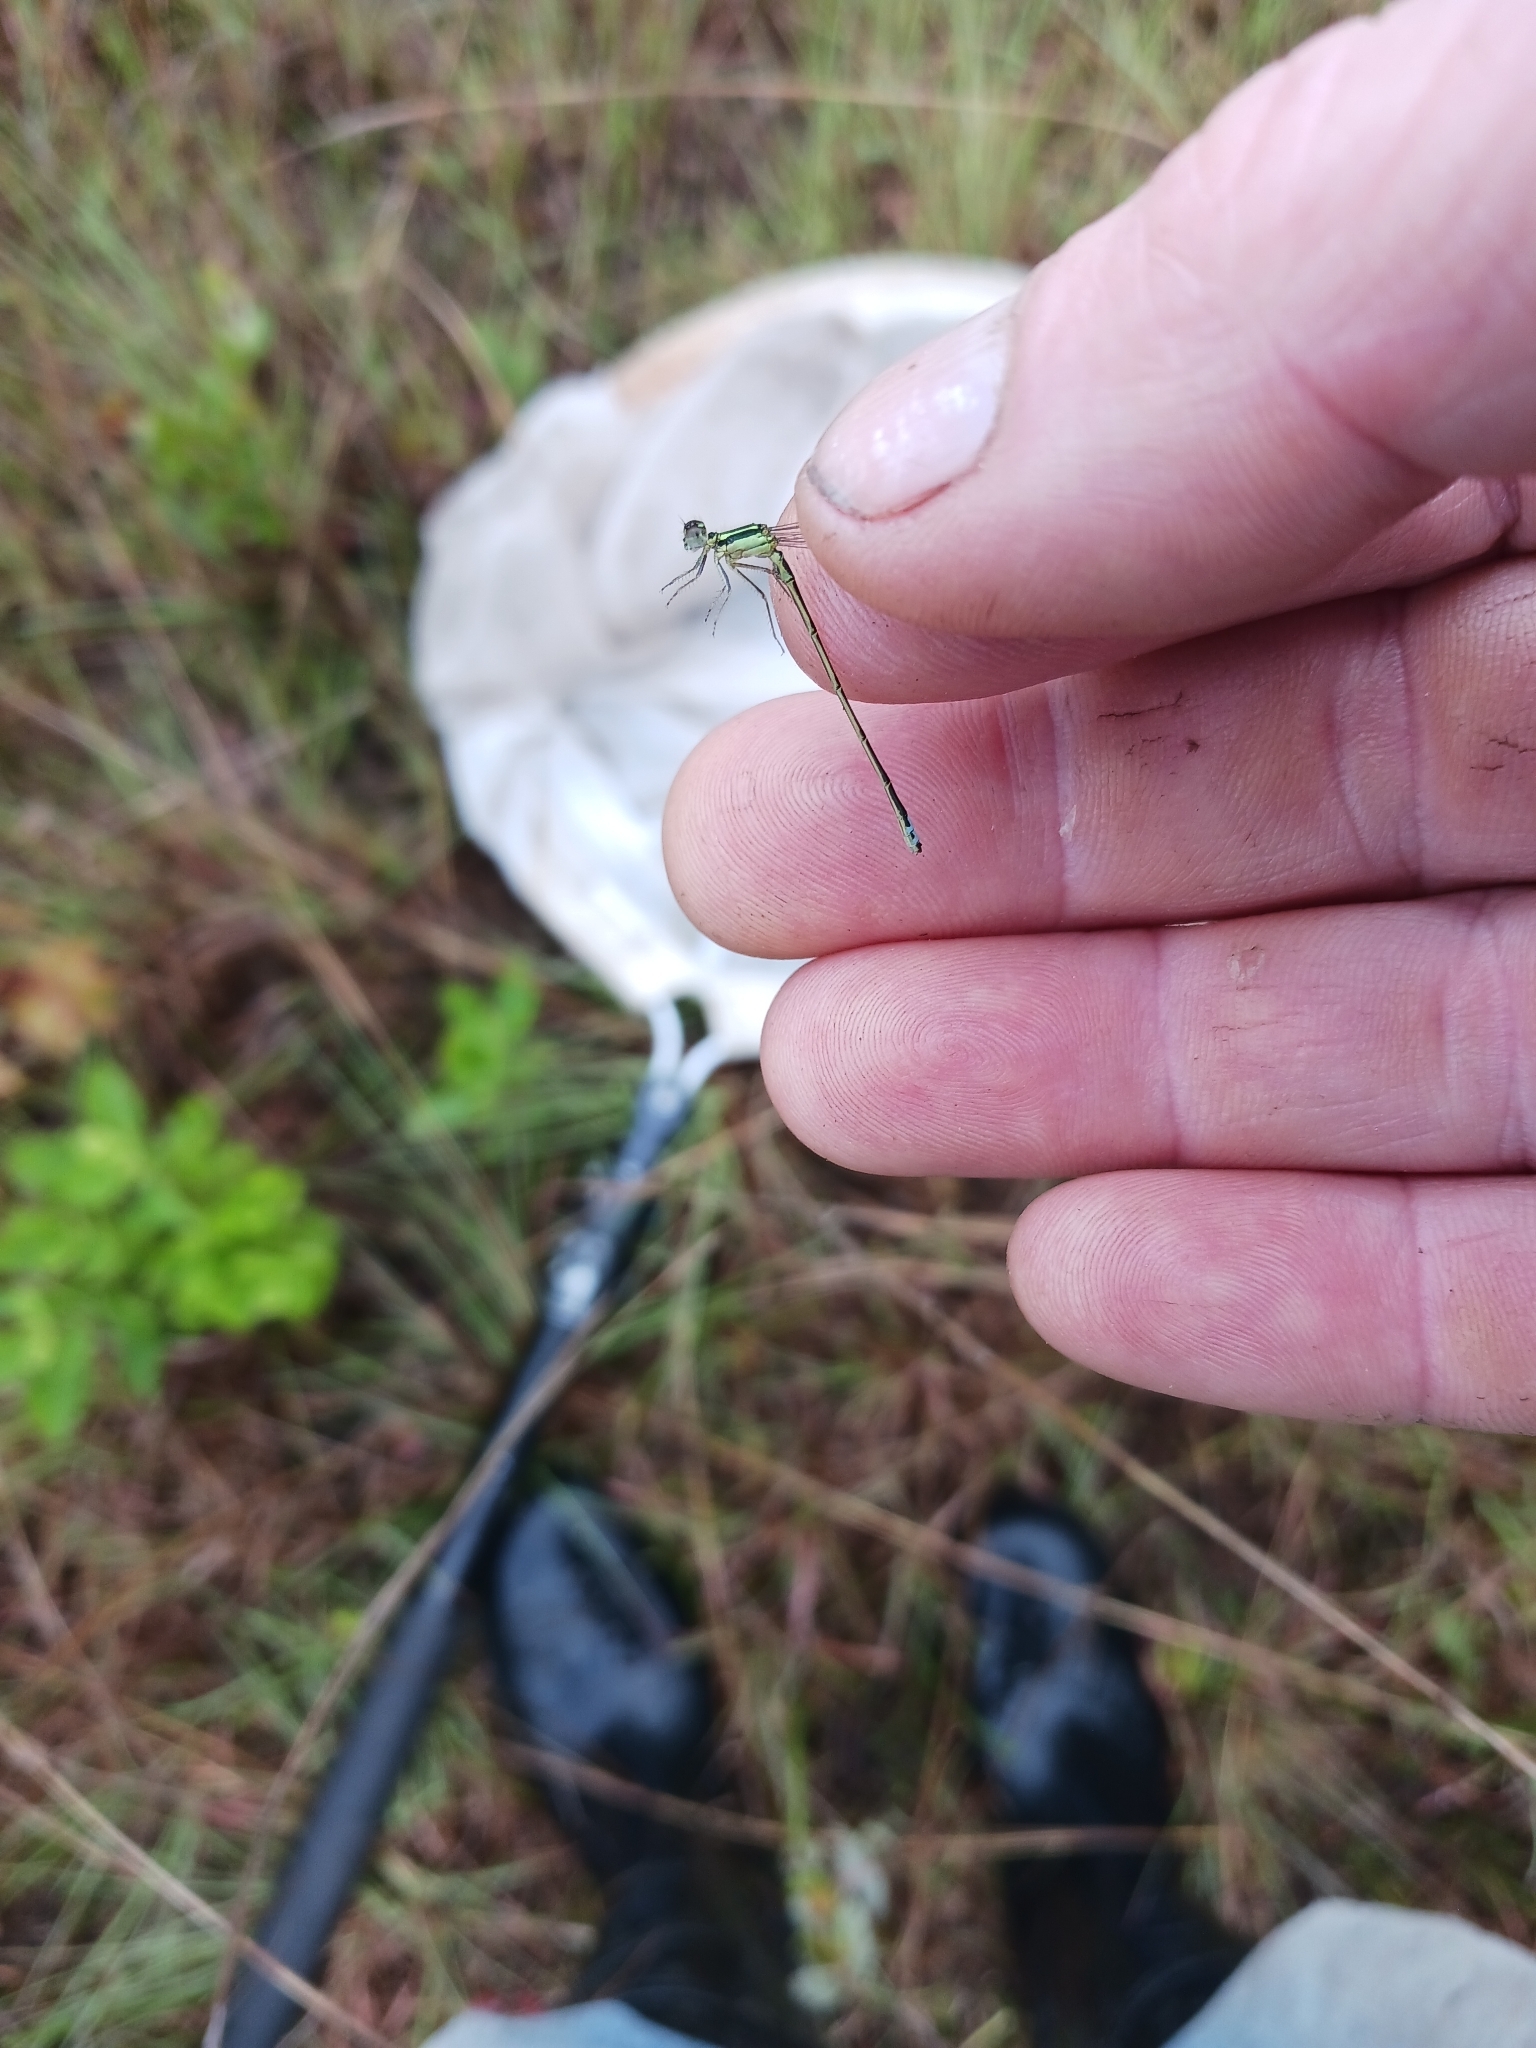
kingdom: Animalia
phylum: Arthropoda
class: Insecta
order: Odonata
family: Coenagrionidae
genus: Ischnura
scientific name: Ischnura verticalis
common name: Eastern forktail
